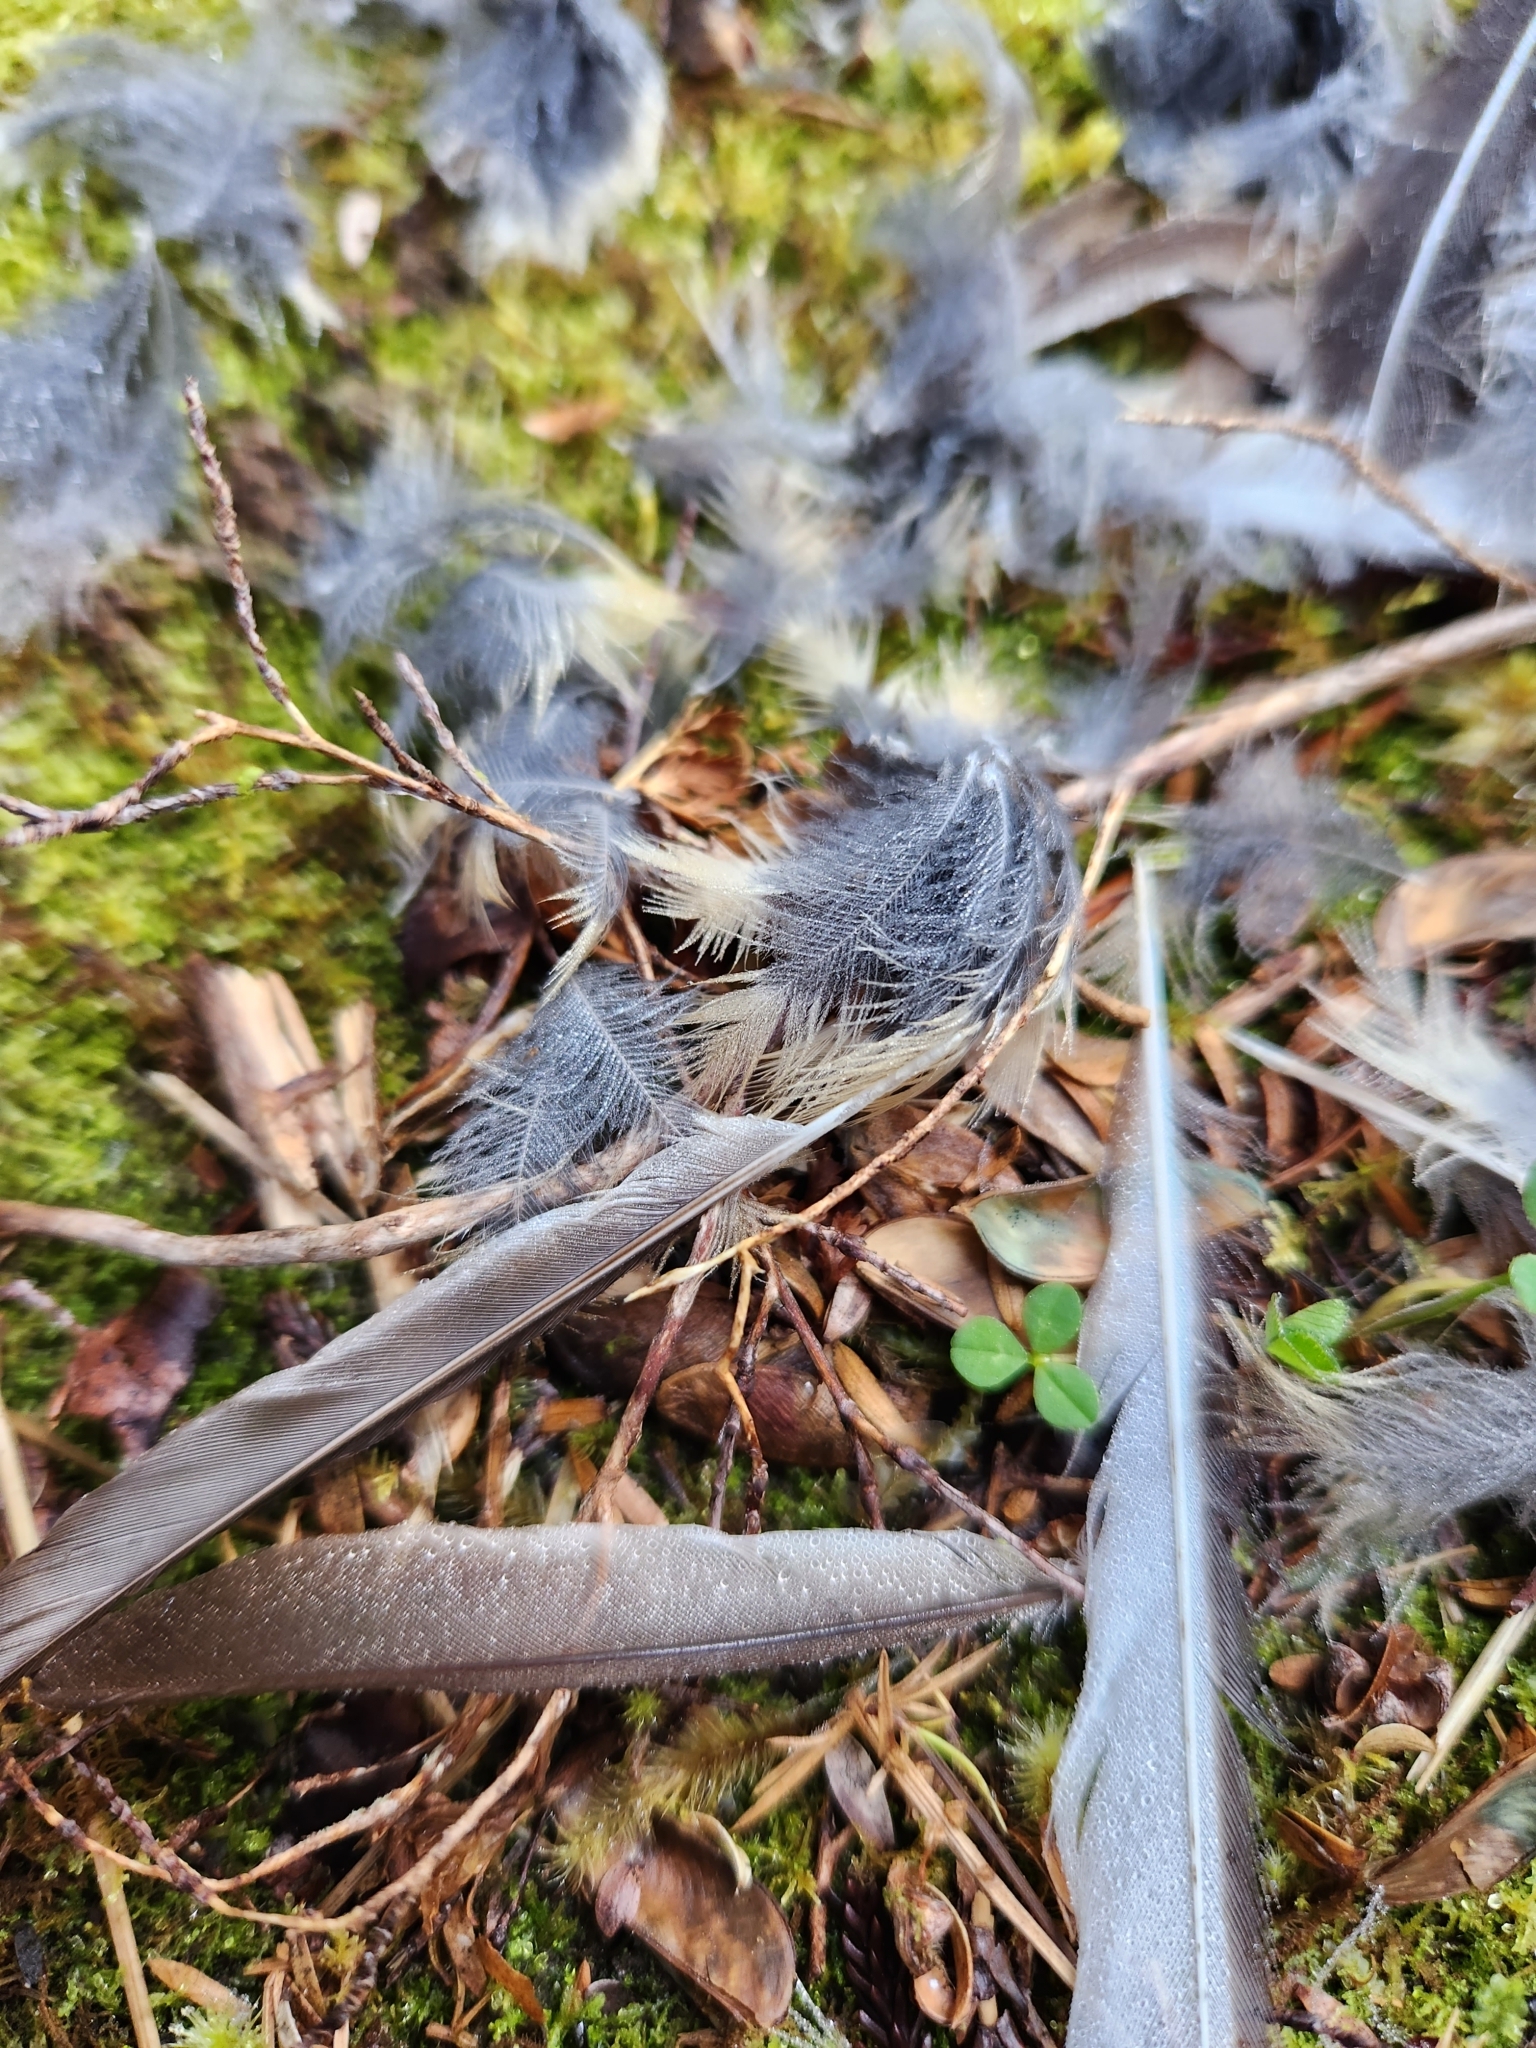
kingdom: Animalia
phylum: Chordata
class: Aves
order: Passeriformes
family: Rhipiduridae
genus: Rhipidura
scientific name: Rhipidura fuliginosa
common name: New zealand fantail
